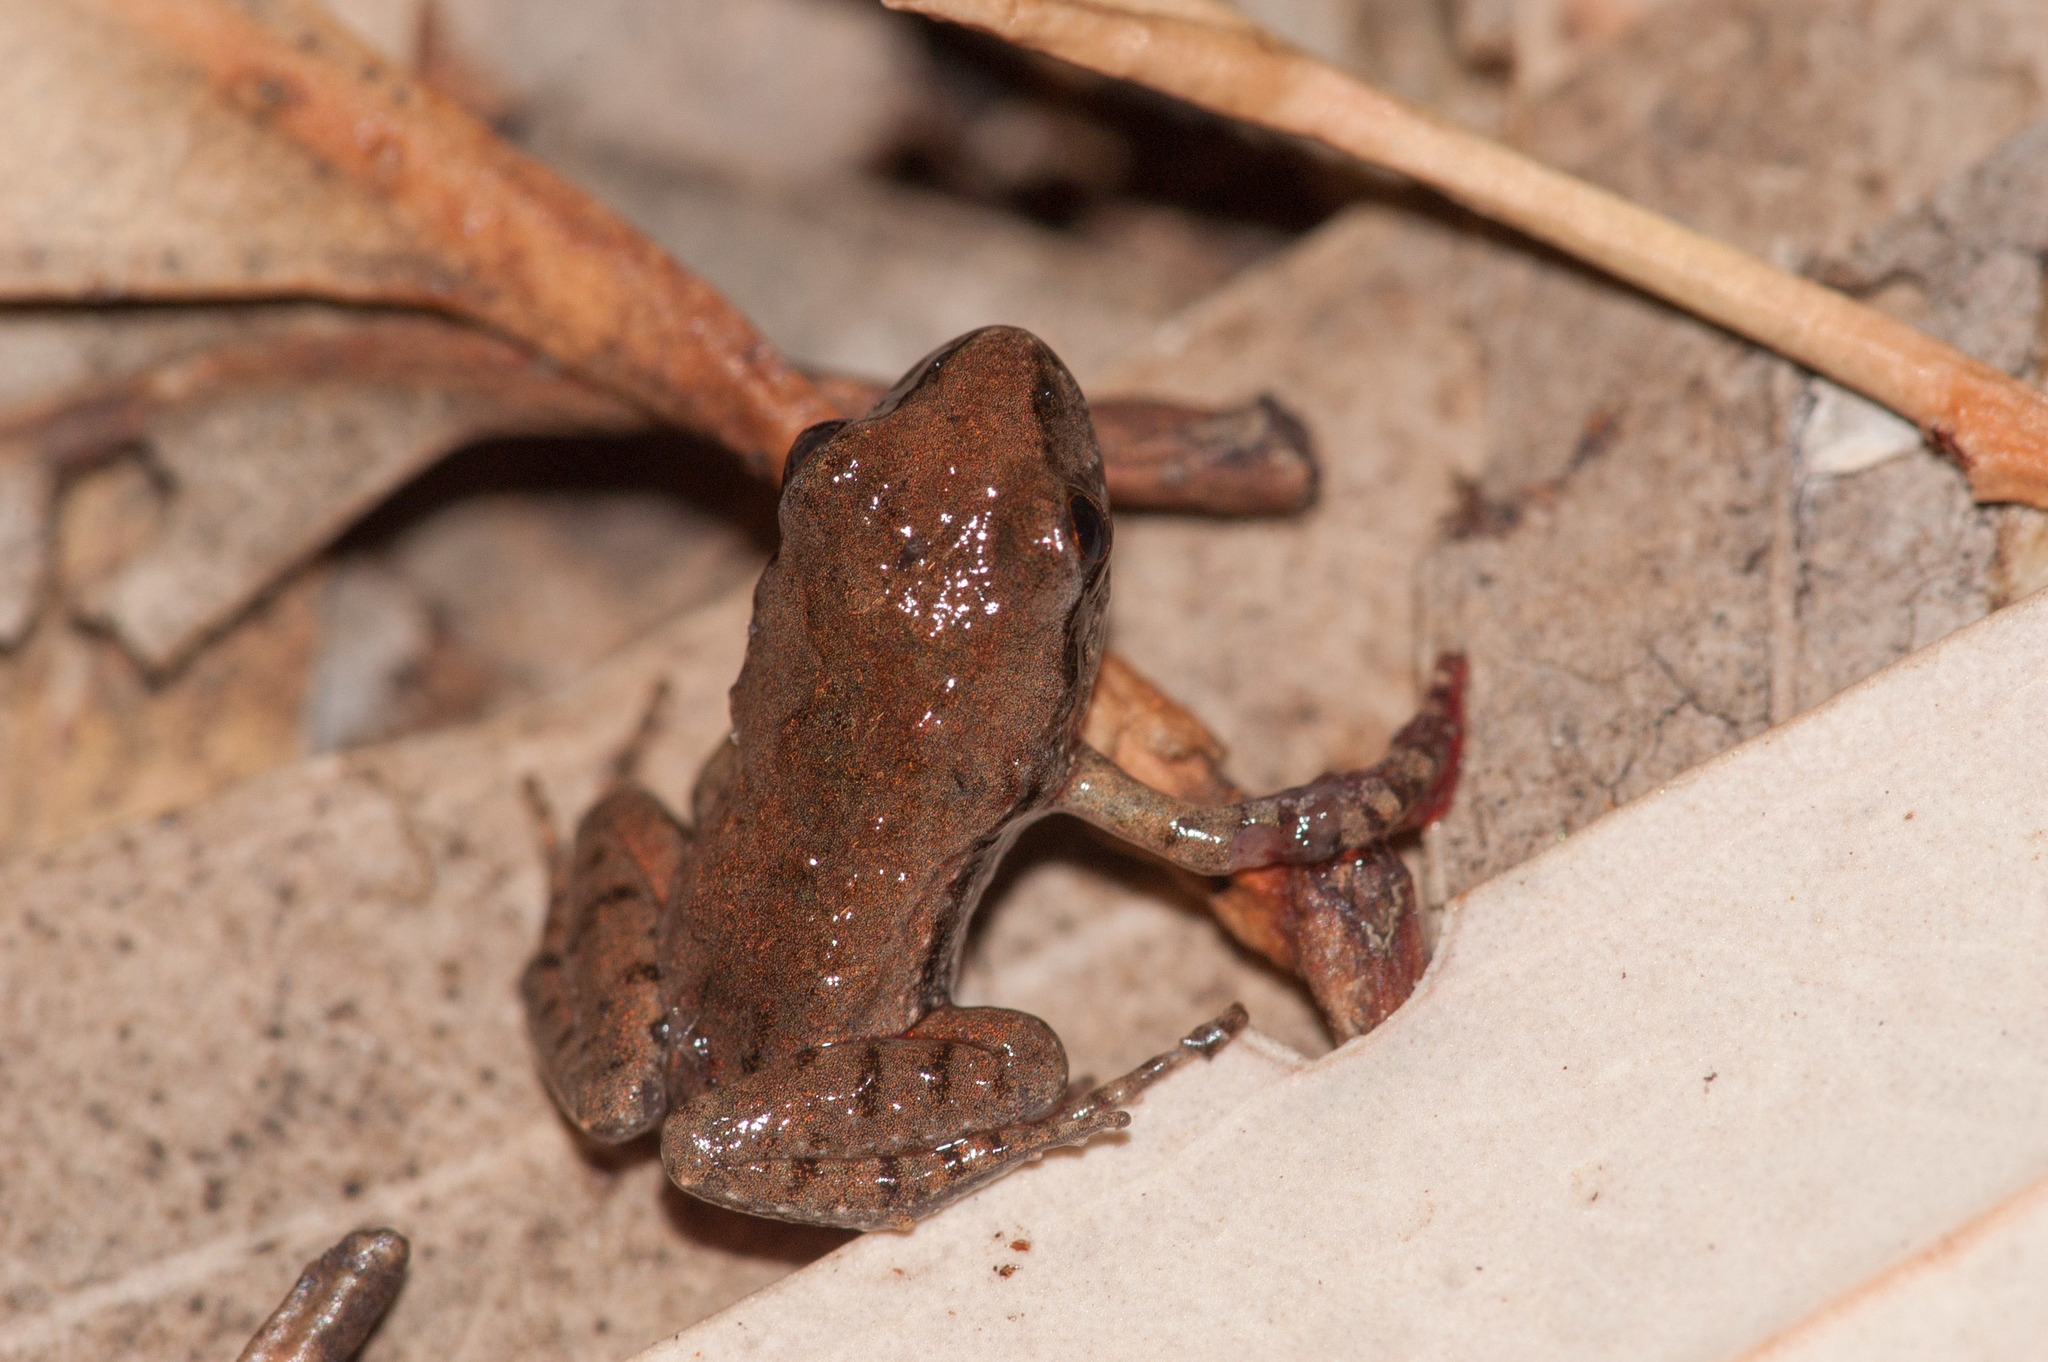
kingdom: Animalia
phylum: Chordata
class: Amphibia
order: Anura
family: Myobatrachidae
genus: Crinia
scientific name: Crinia riparia
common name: Streambank froglet
